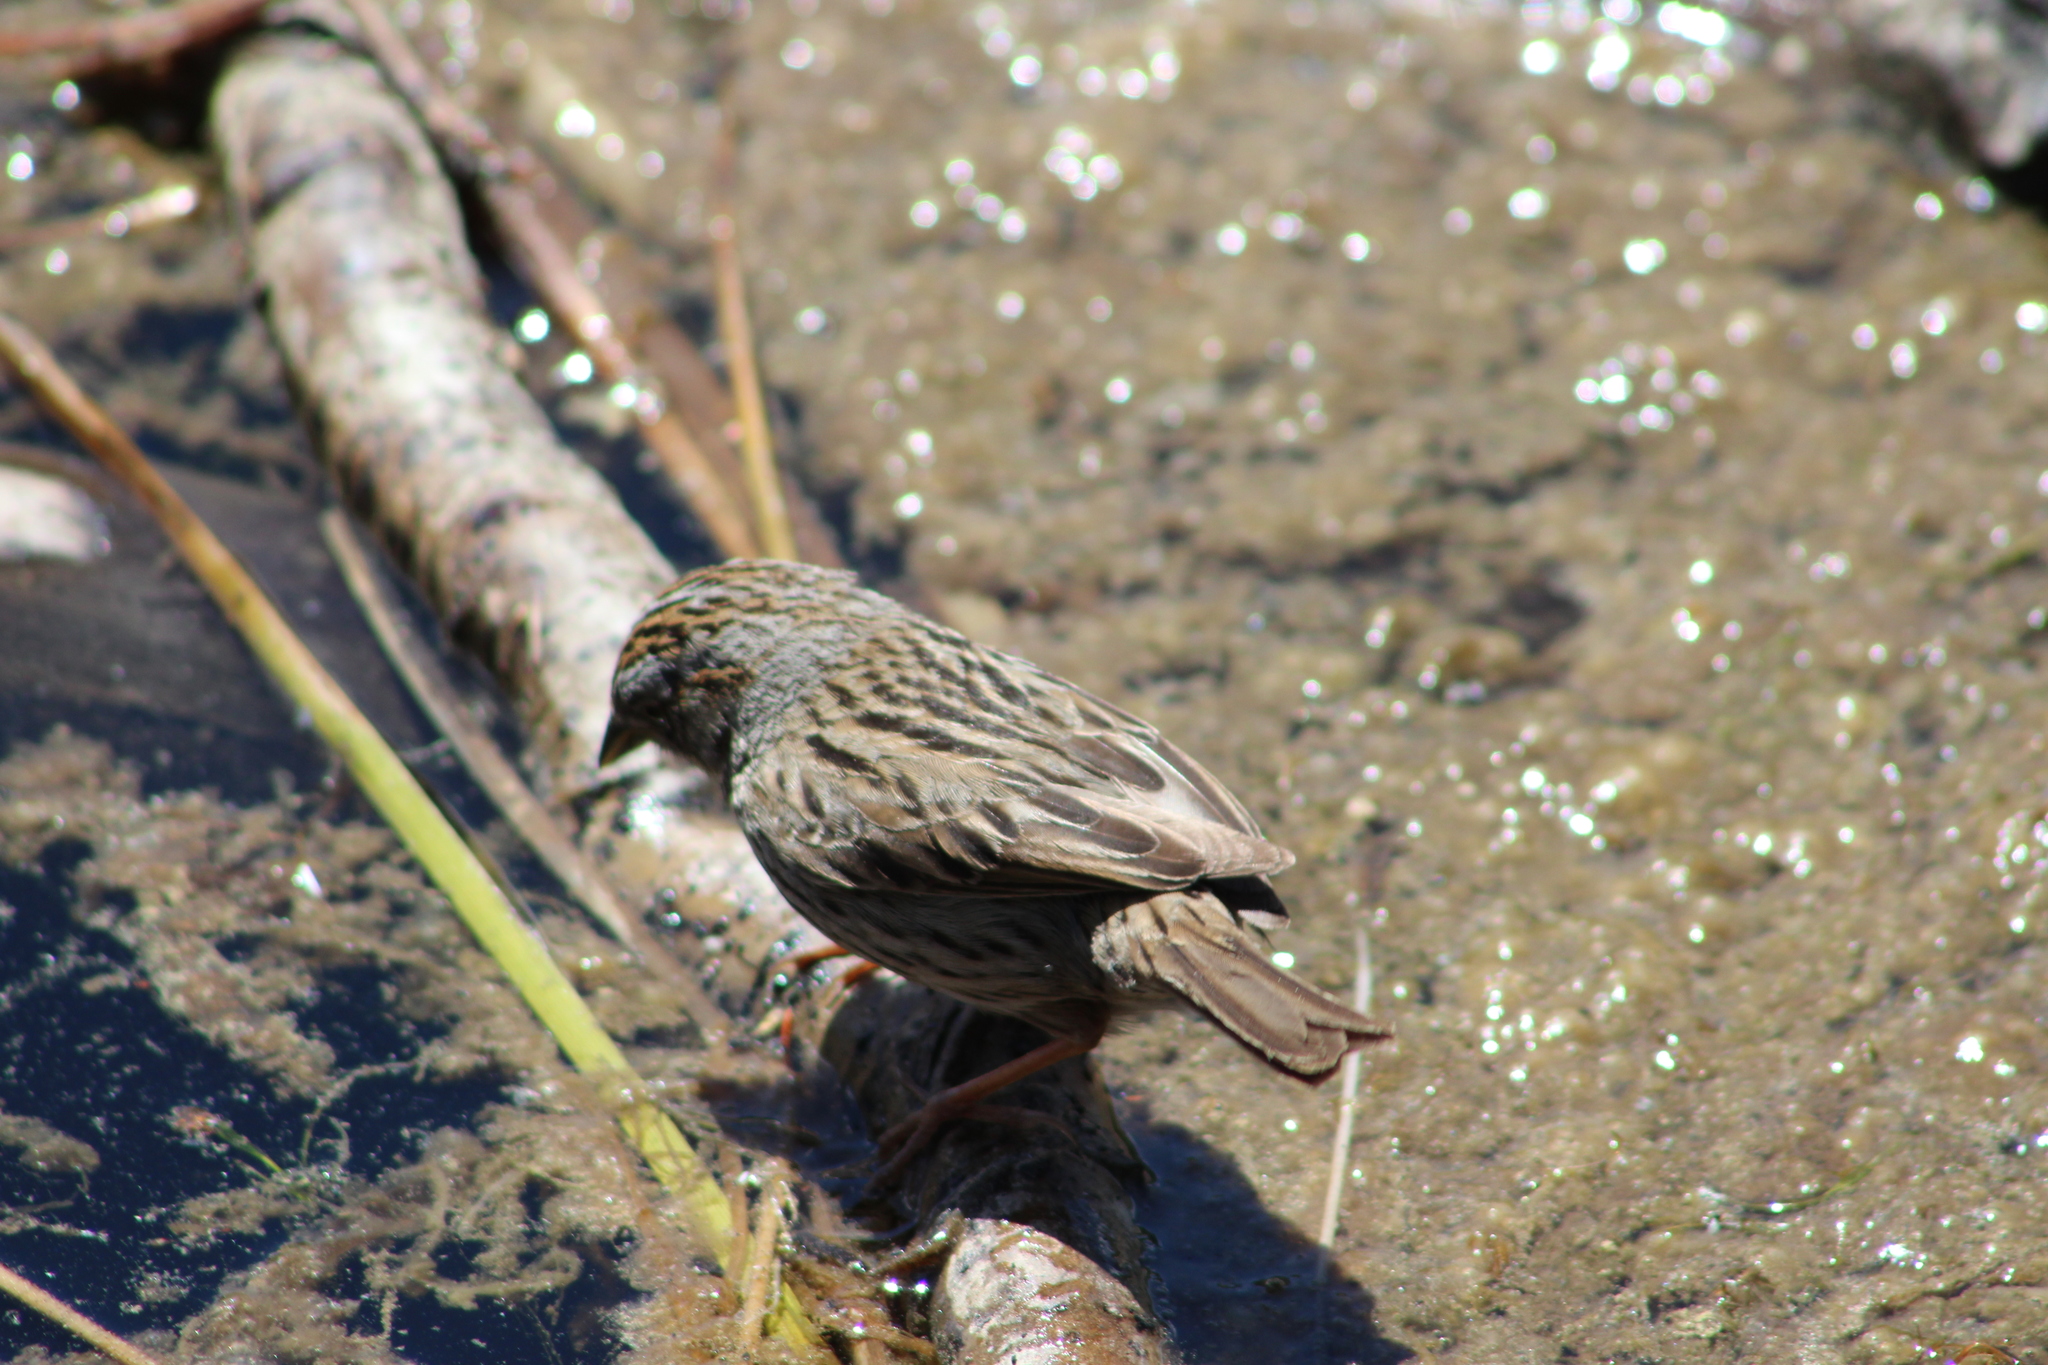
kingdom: Animalia
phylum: Chordata
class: Aves
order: Passeriformes
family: Passerellidae
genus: Melospiza
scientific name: Melospiza lincolnii
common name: Lincoln's sparrow
